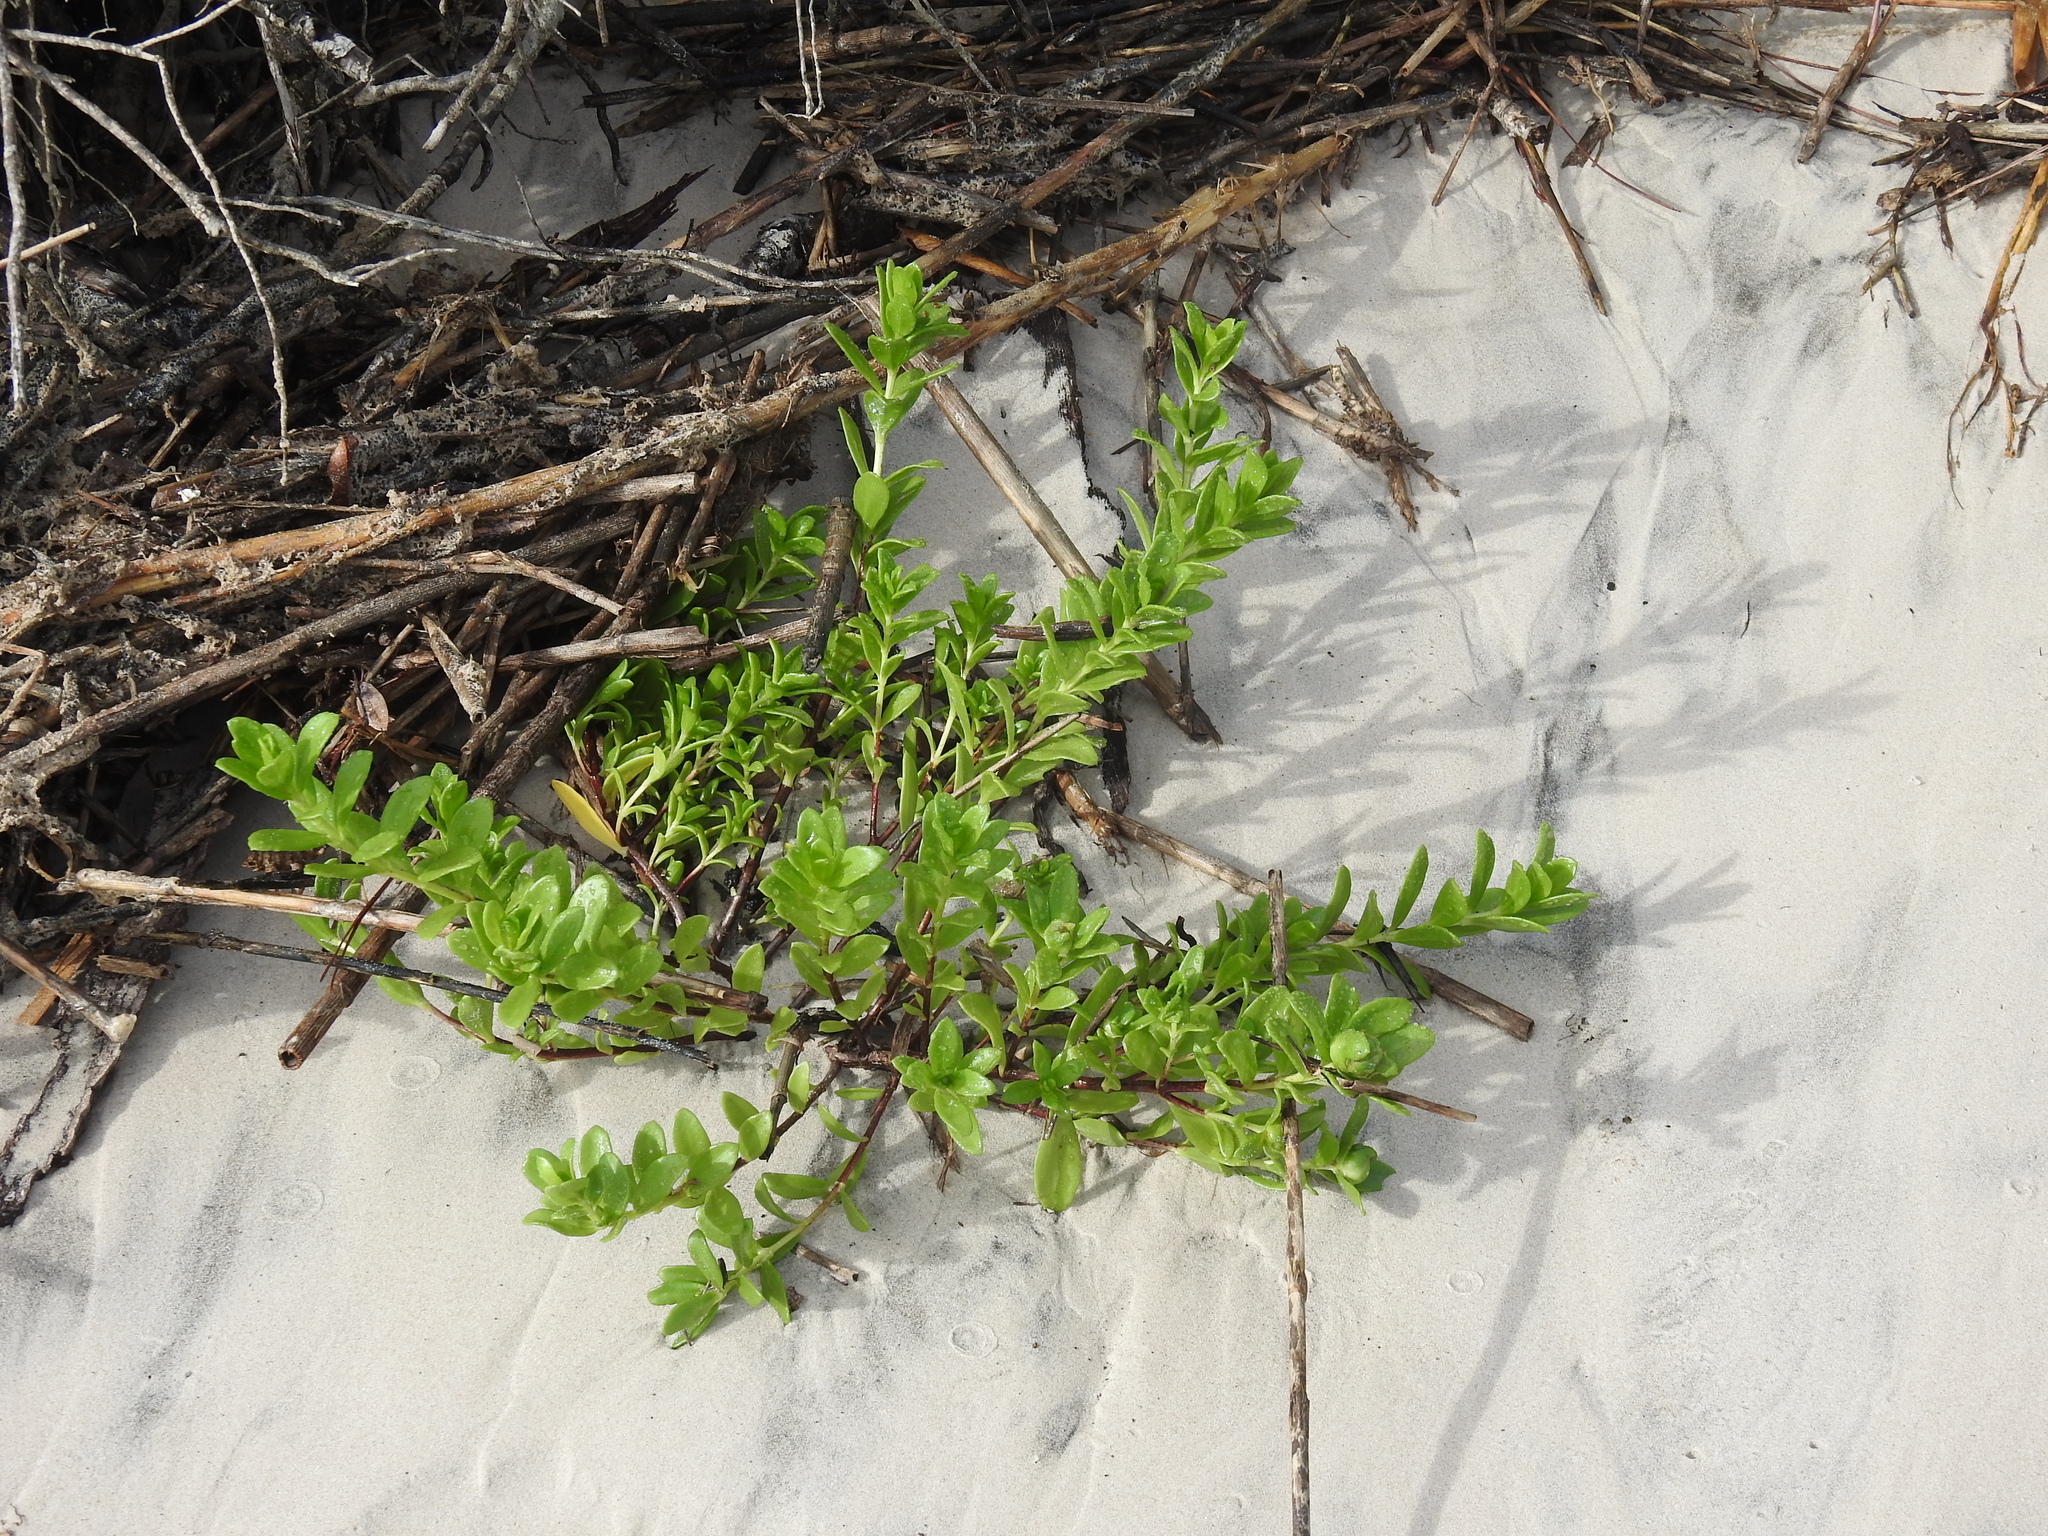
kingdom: Plantae
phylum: Tracheophyta
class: Magnoliopsida
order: Asterales
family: Asteraceae
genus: Iva
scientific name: Iva imbricata
